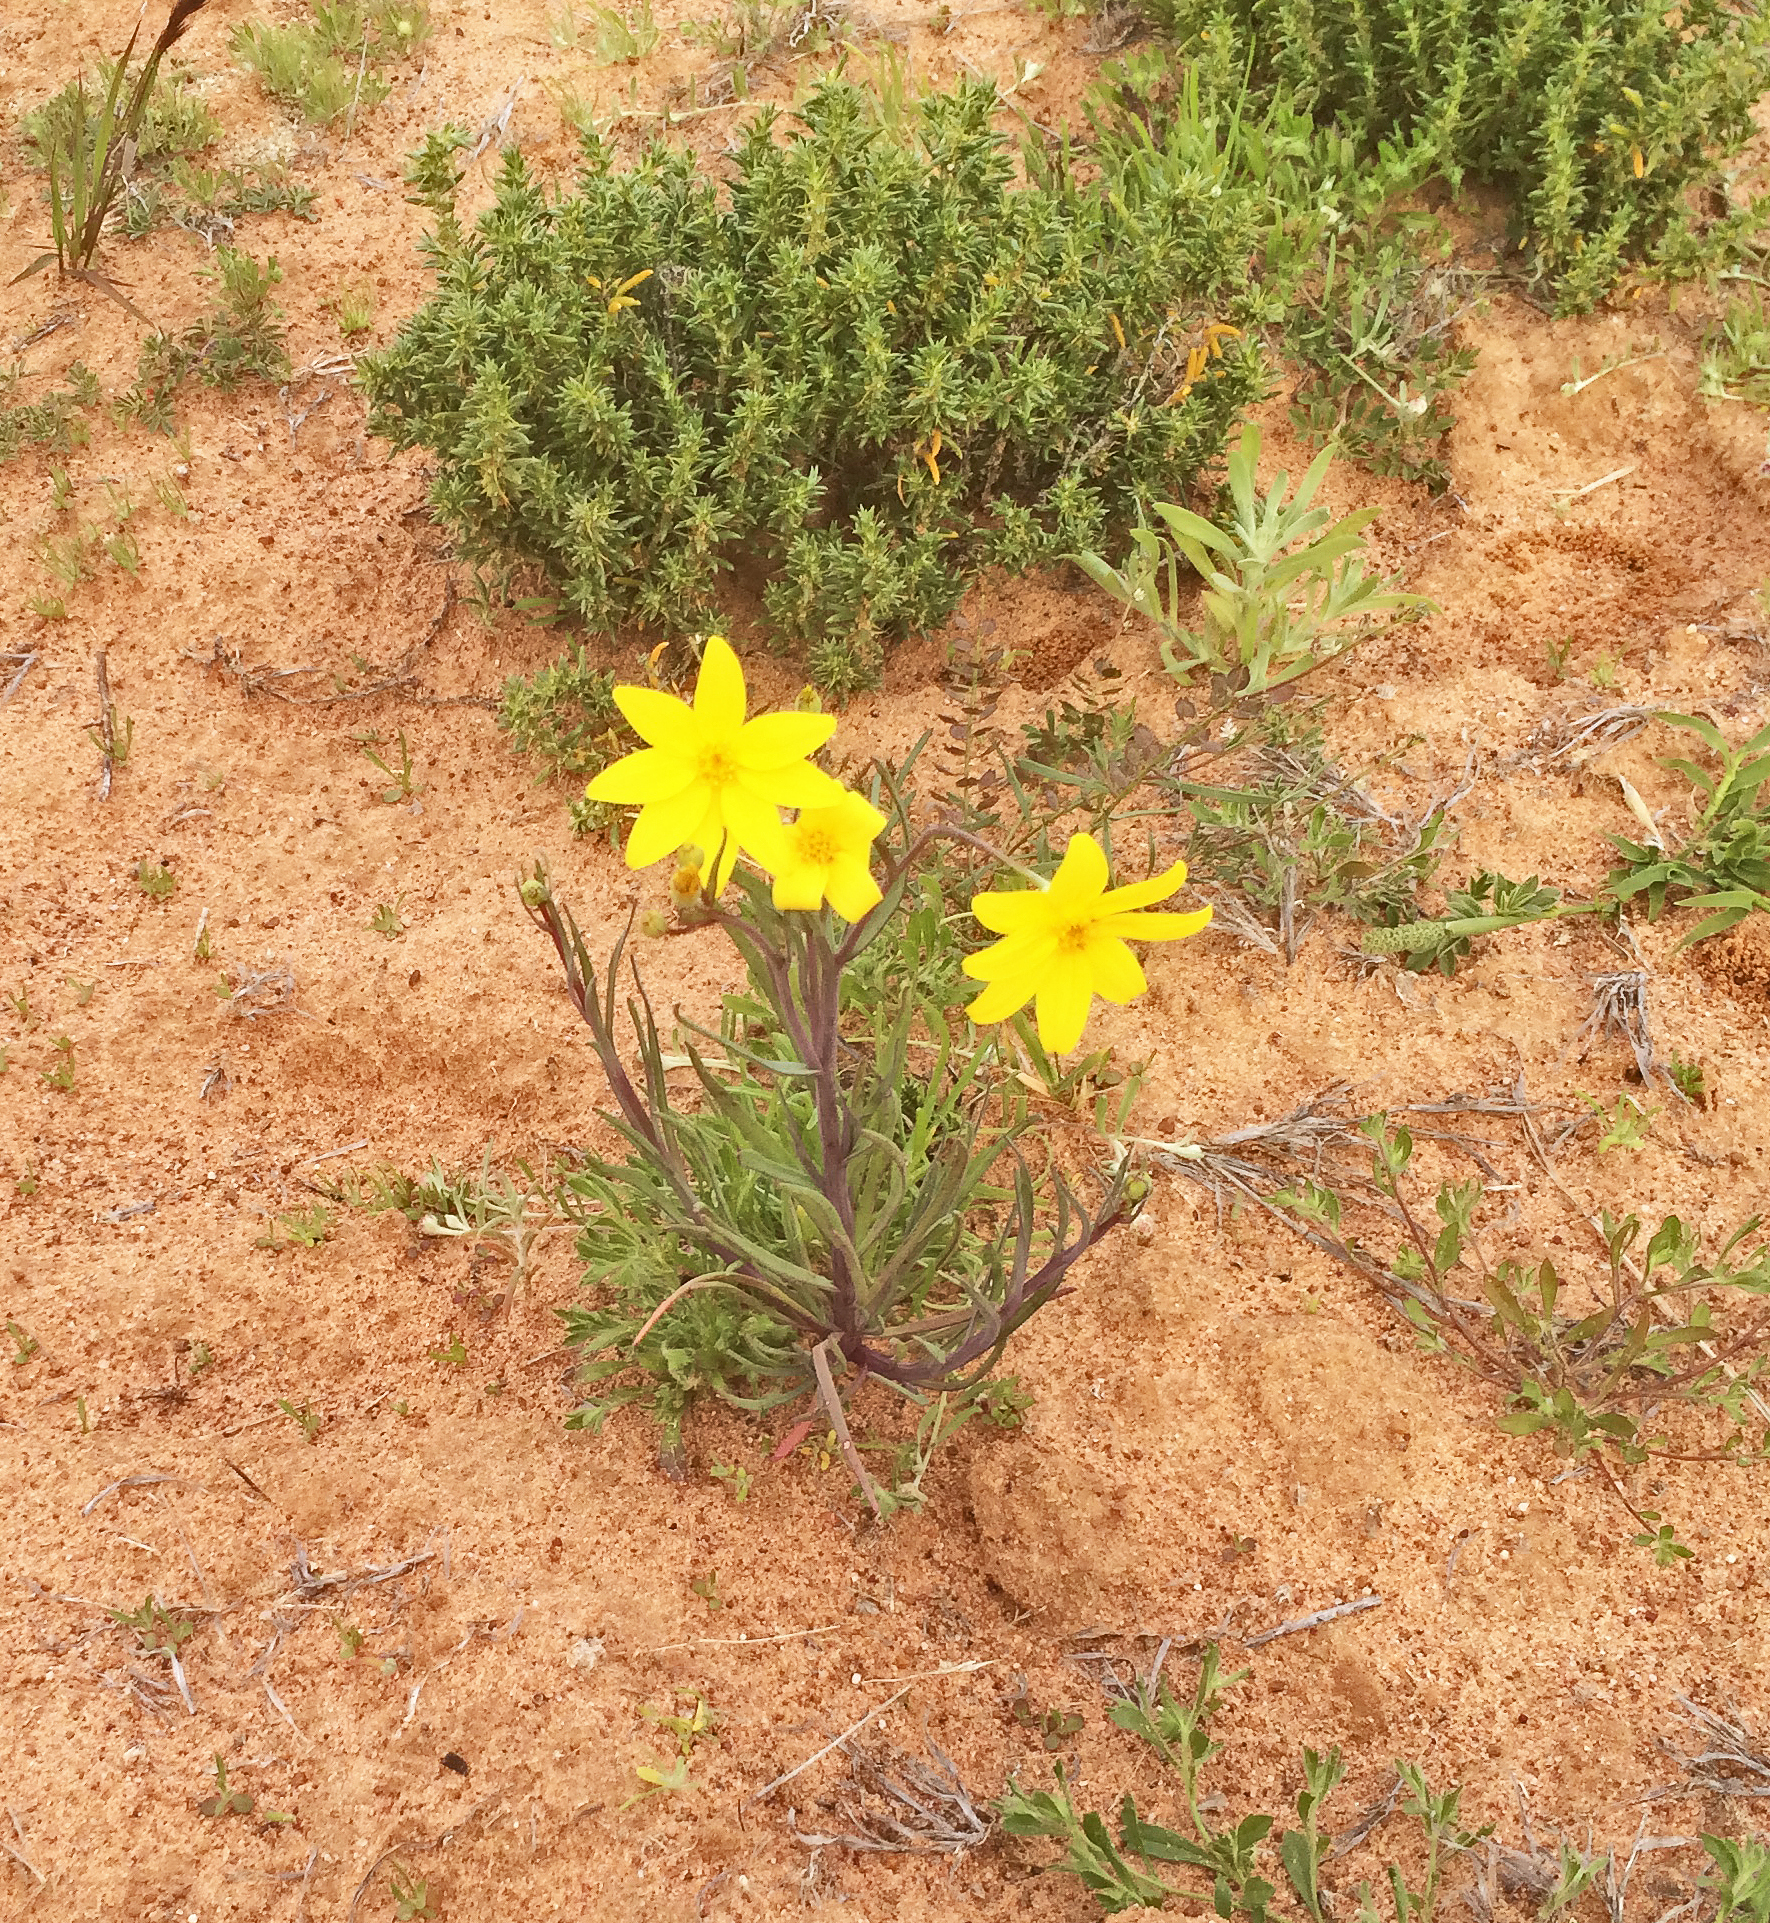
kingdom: Plantae
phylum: Tracheophyta
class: Magnoliopsida
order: Asterales
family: Asteraceae
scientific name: Asteraceae
